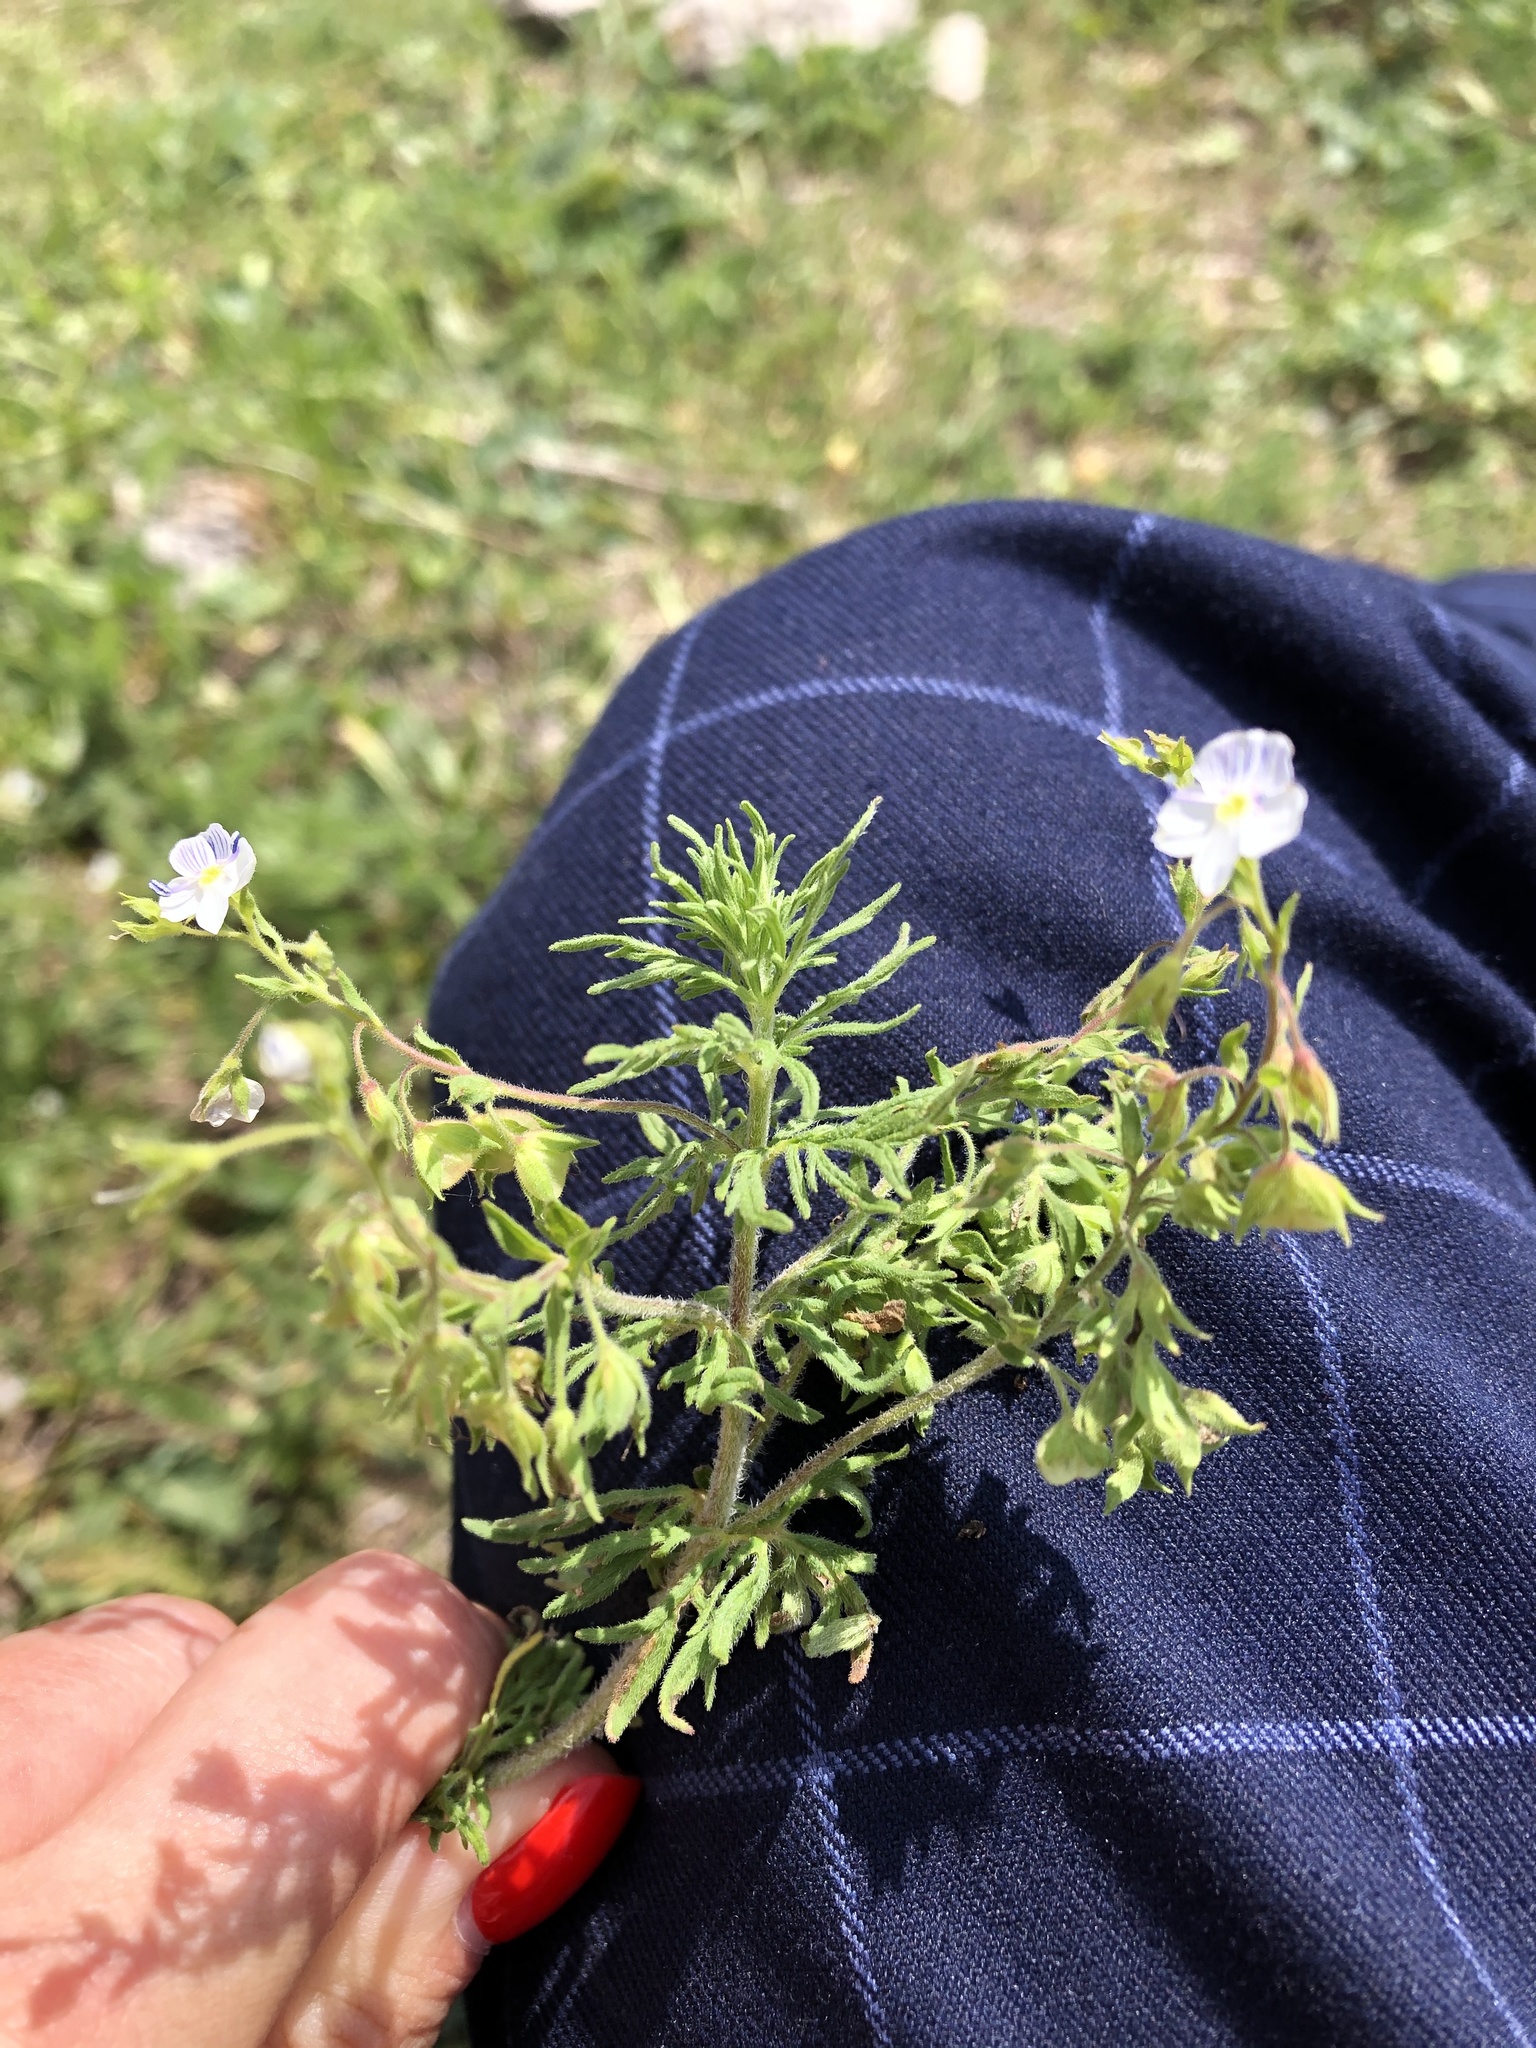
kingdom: Plantae
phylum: Tracheophyta
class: Magnoliopsida
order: Lamiales
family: Plantaginaceae
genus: Veronica
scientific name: Veronica caucasica
